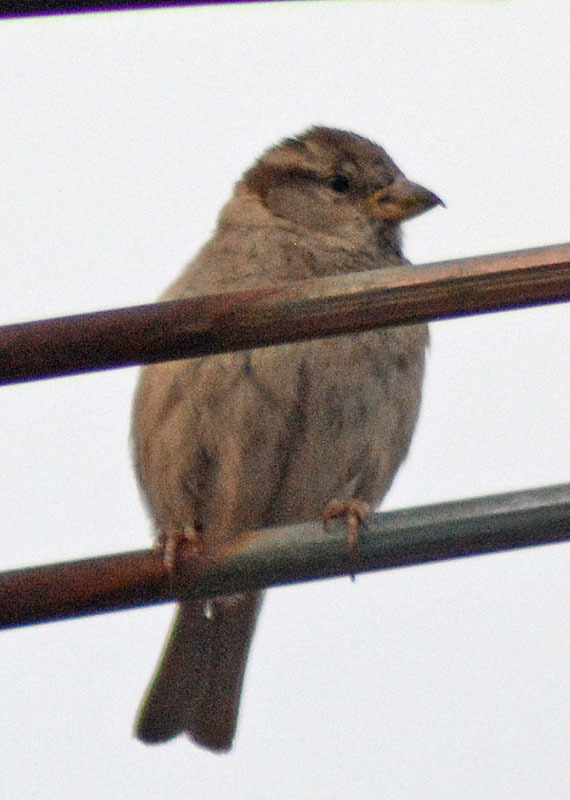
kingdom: Animalia
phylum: Chordata
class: Aves
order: Passeriformes
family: Passeridae
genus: Passer
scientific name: Passer domesticus
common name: House sparrow
